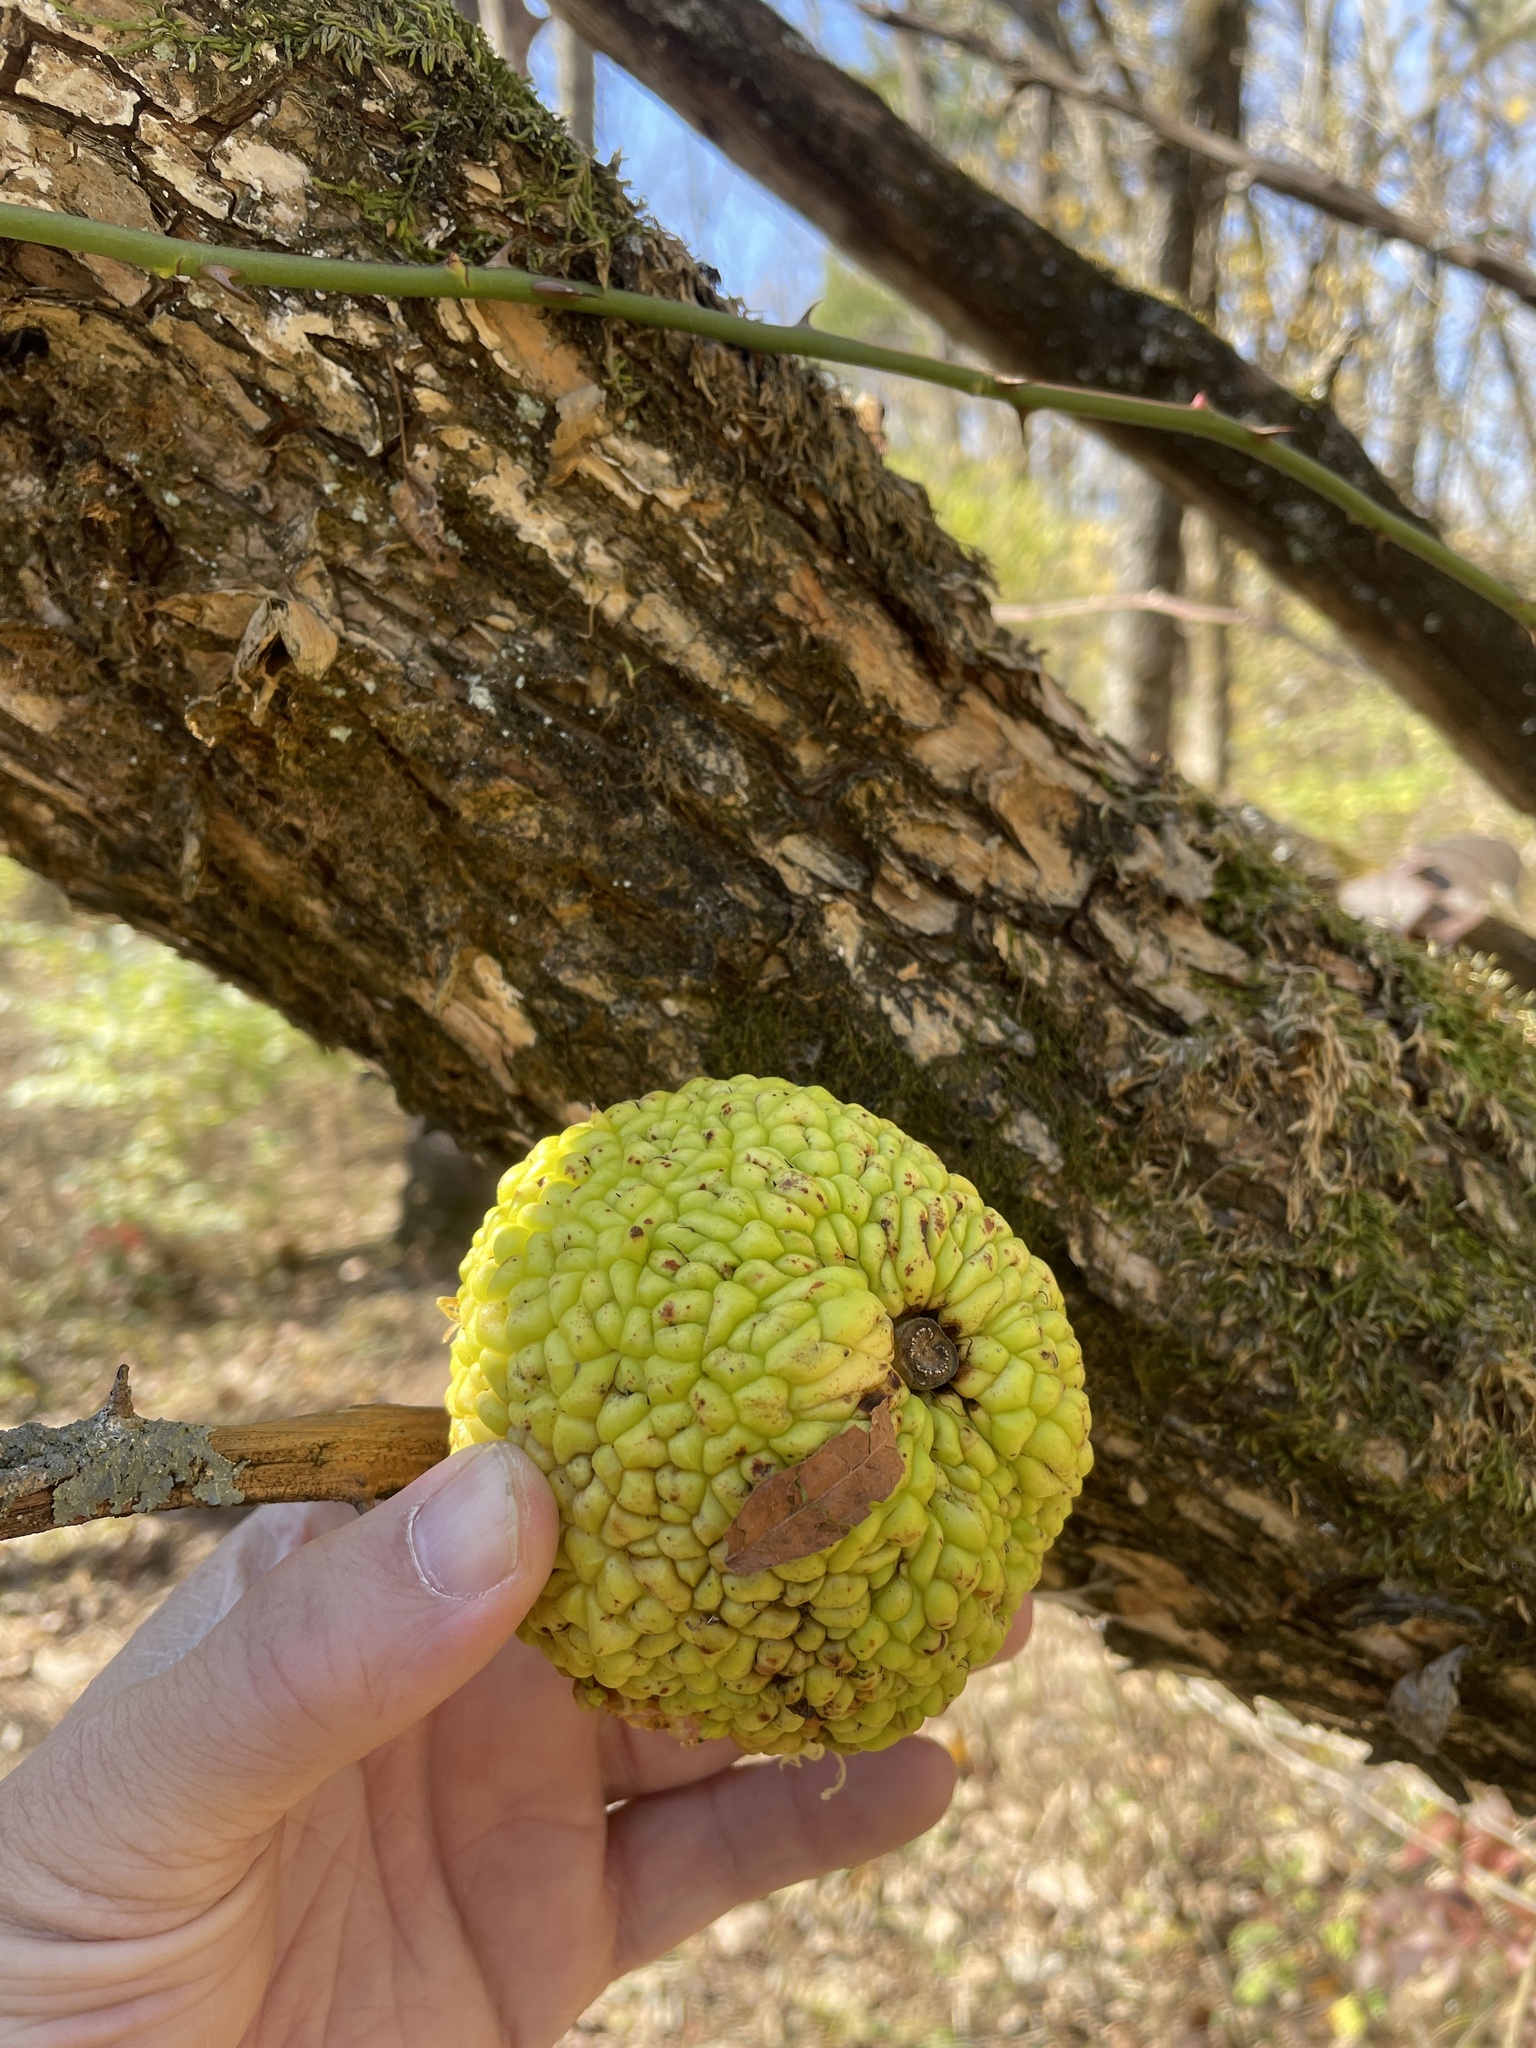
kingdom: Plantae
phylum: Tracheophyta
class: Magnoliopsida
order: Rosales
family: Moraceae
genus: Maclura
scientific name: Maclura pomifera
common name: Osage-orange
